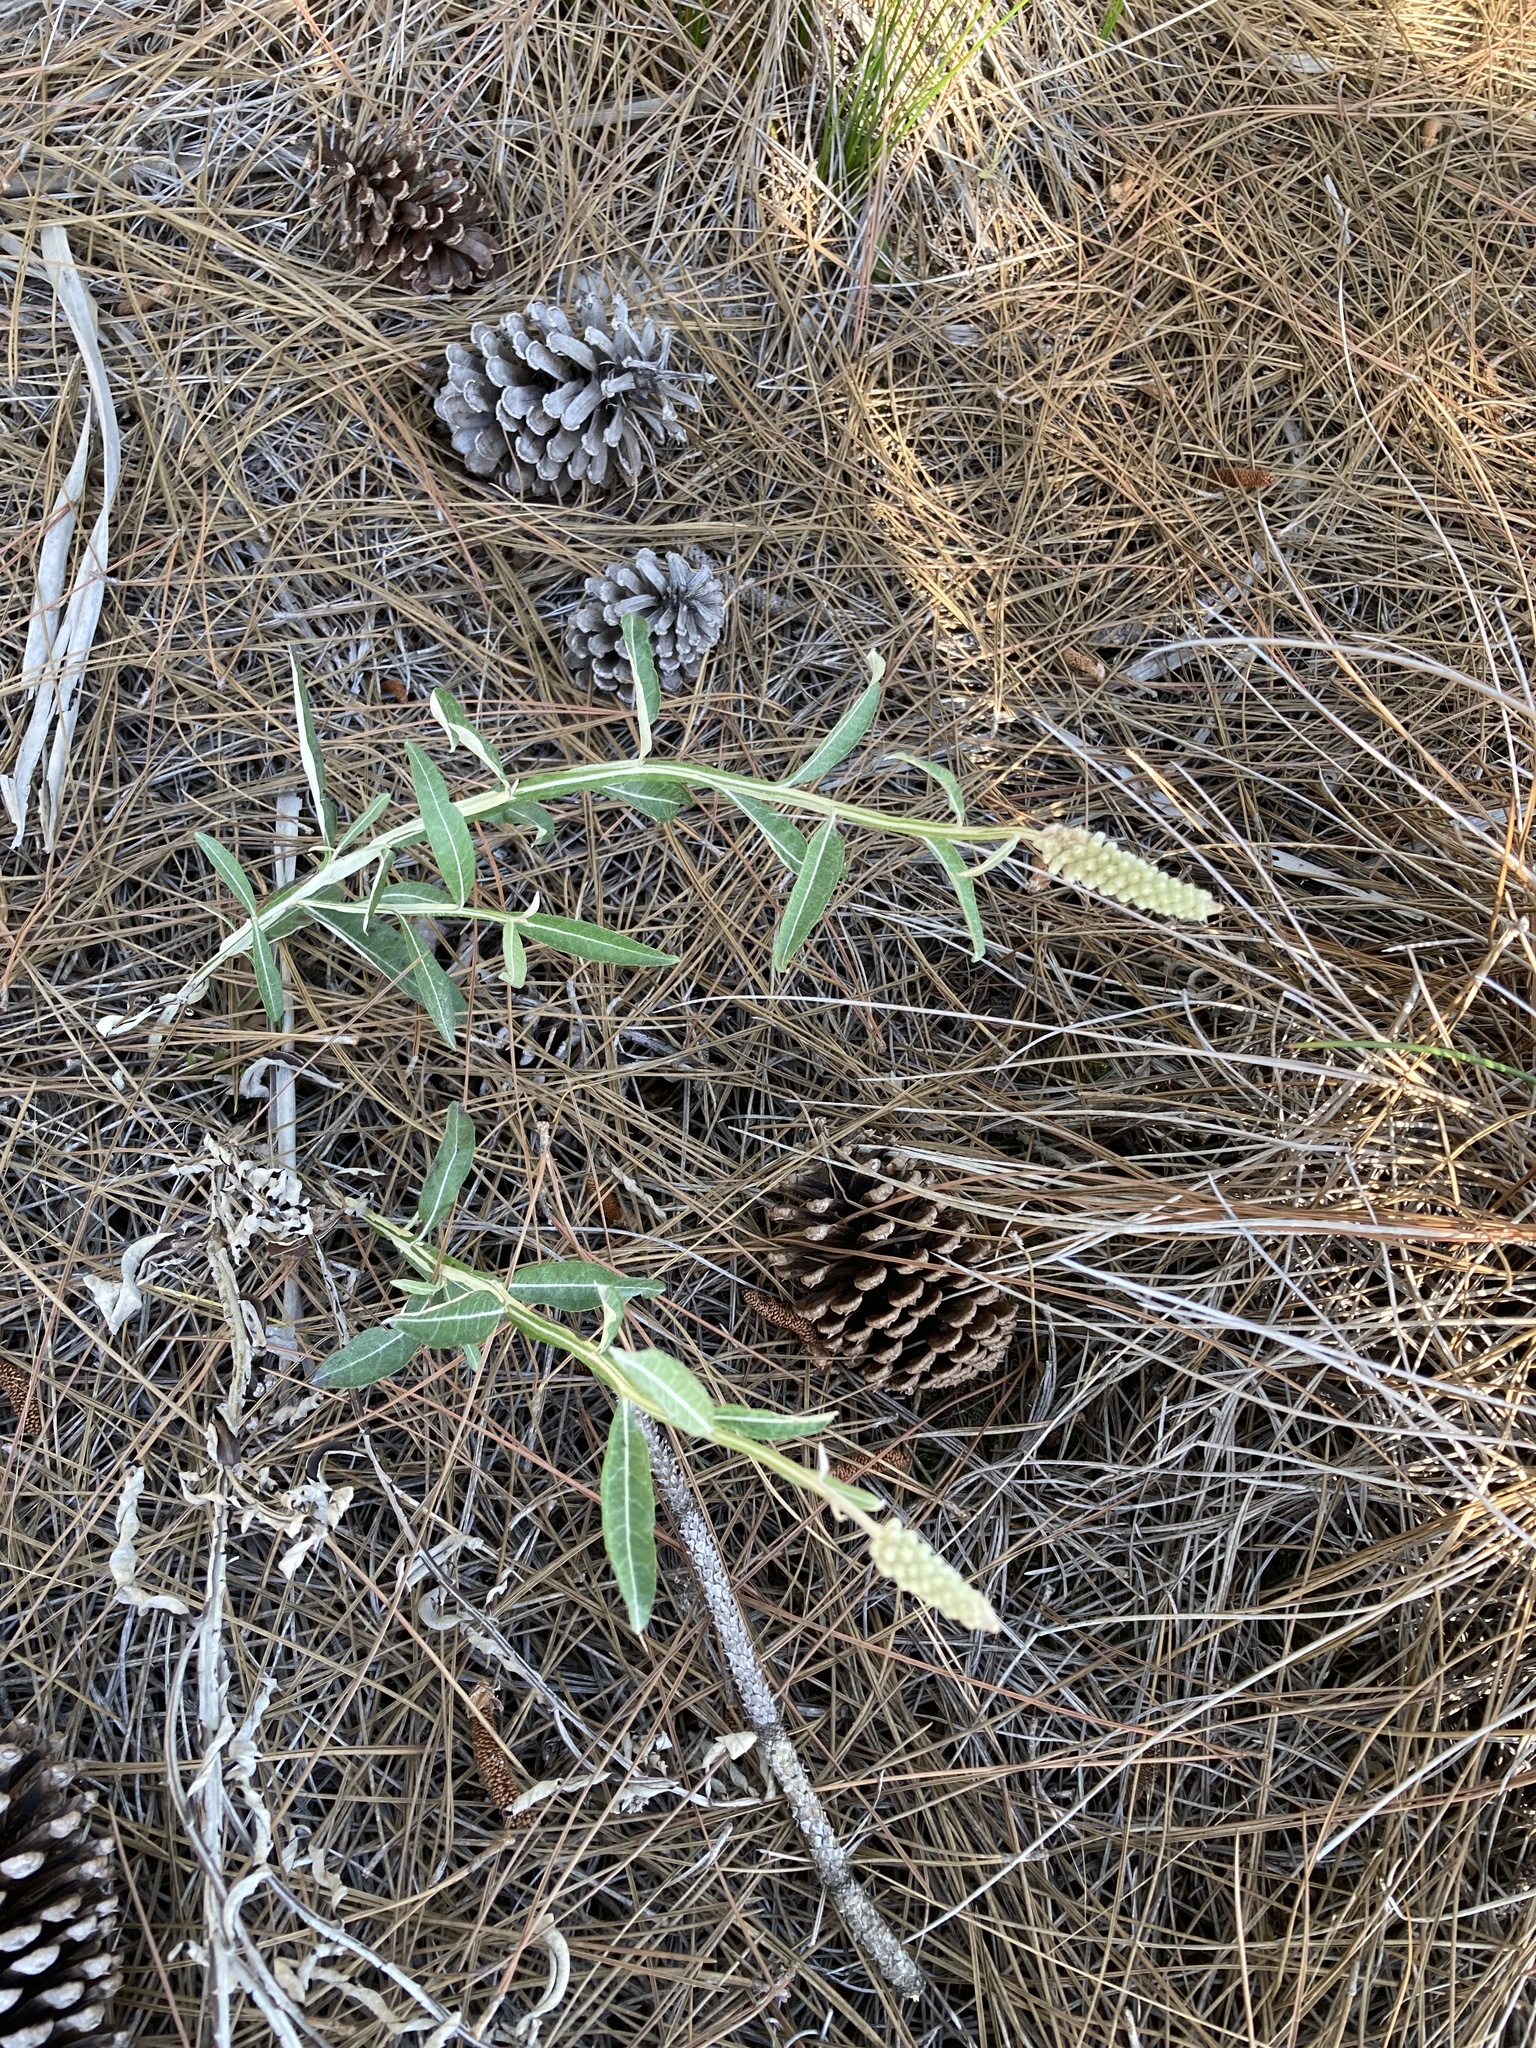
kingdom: Plantae
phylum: Tracheophyta
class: Magnoliopsida
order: Asterales
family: Asteraceae
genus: Pterocaulon
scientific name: Pterocaulon pycnostachyum
